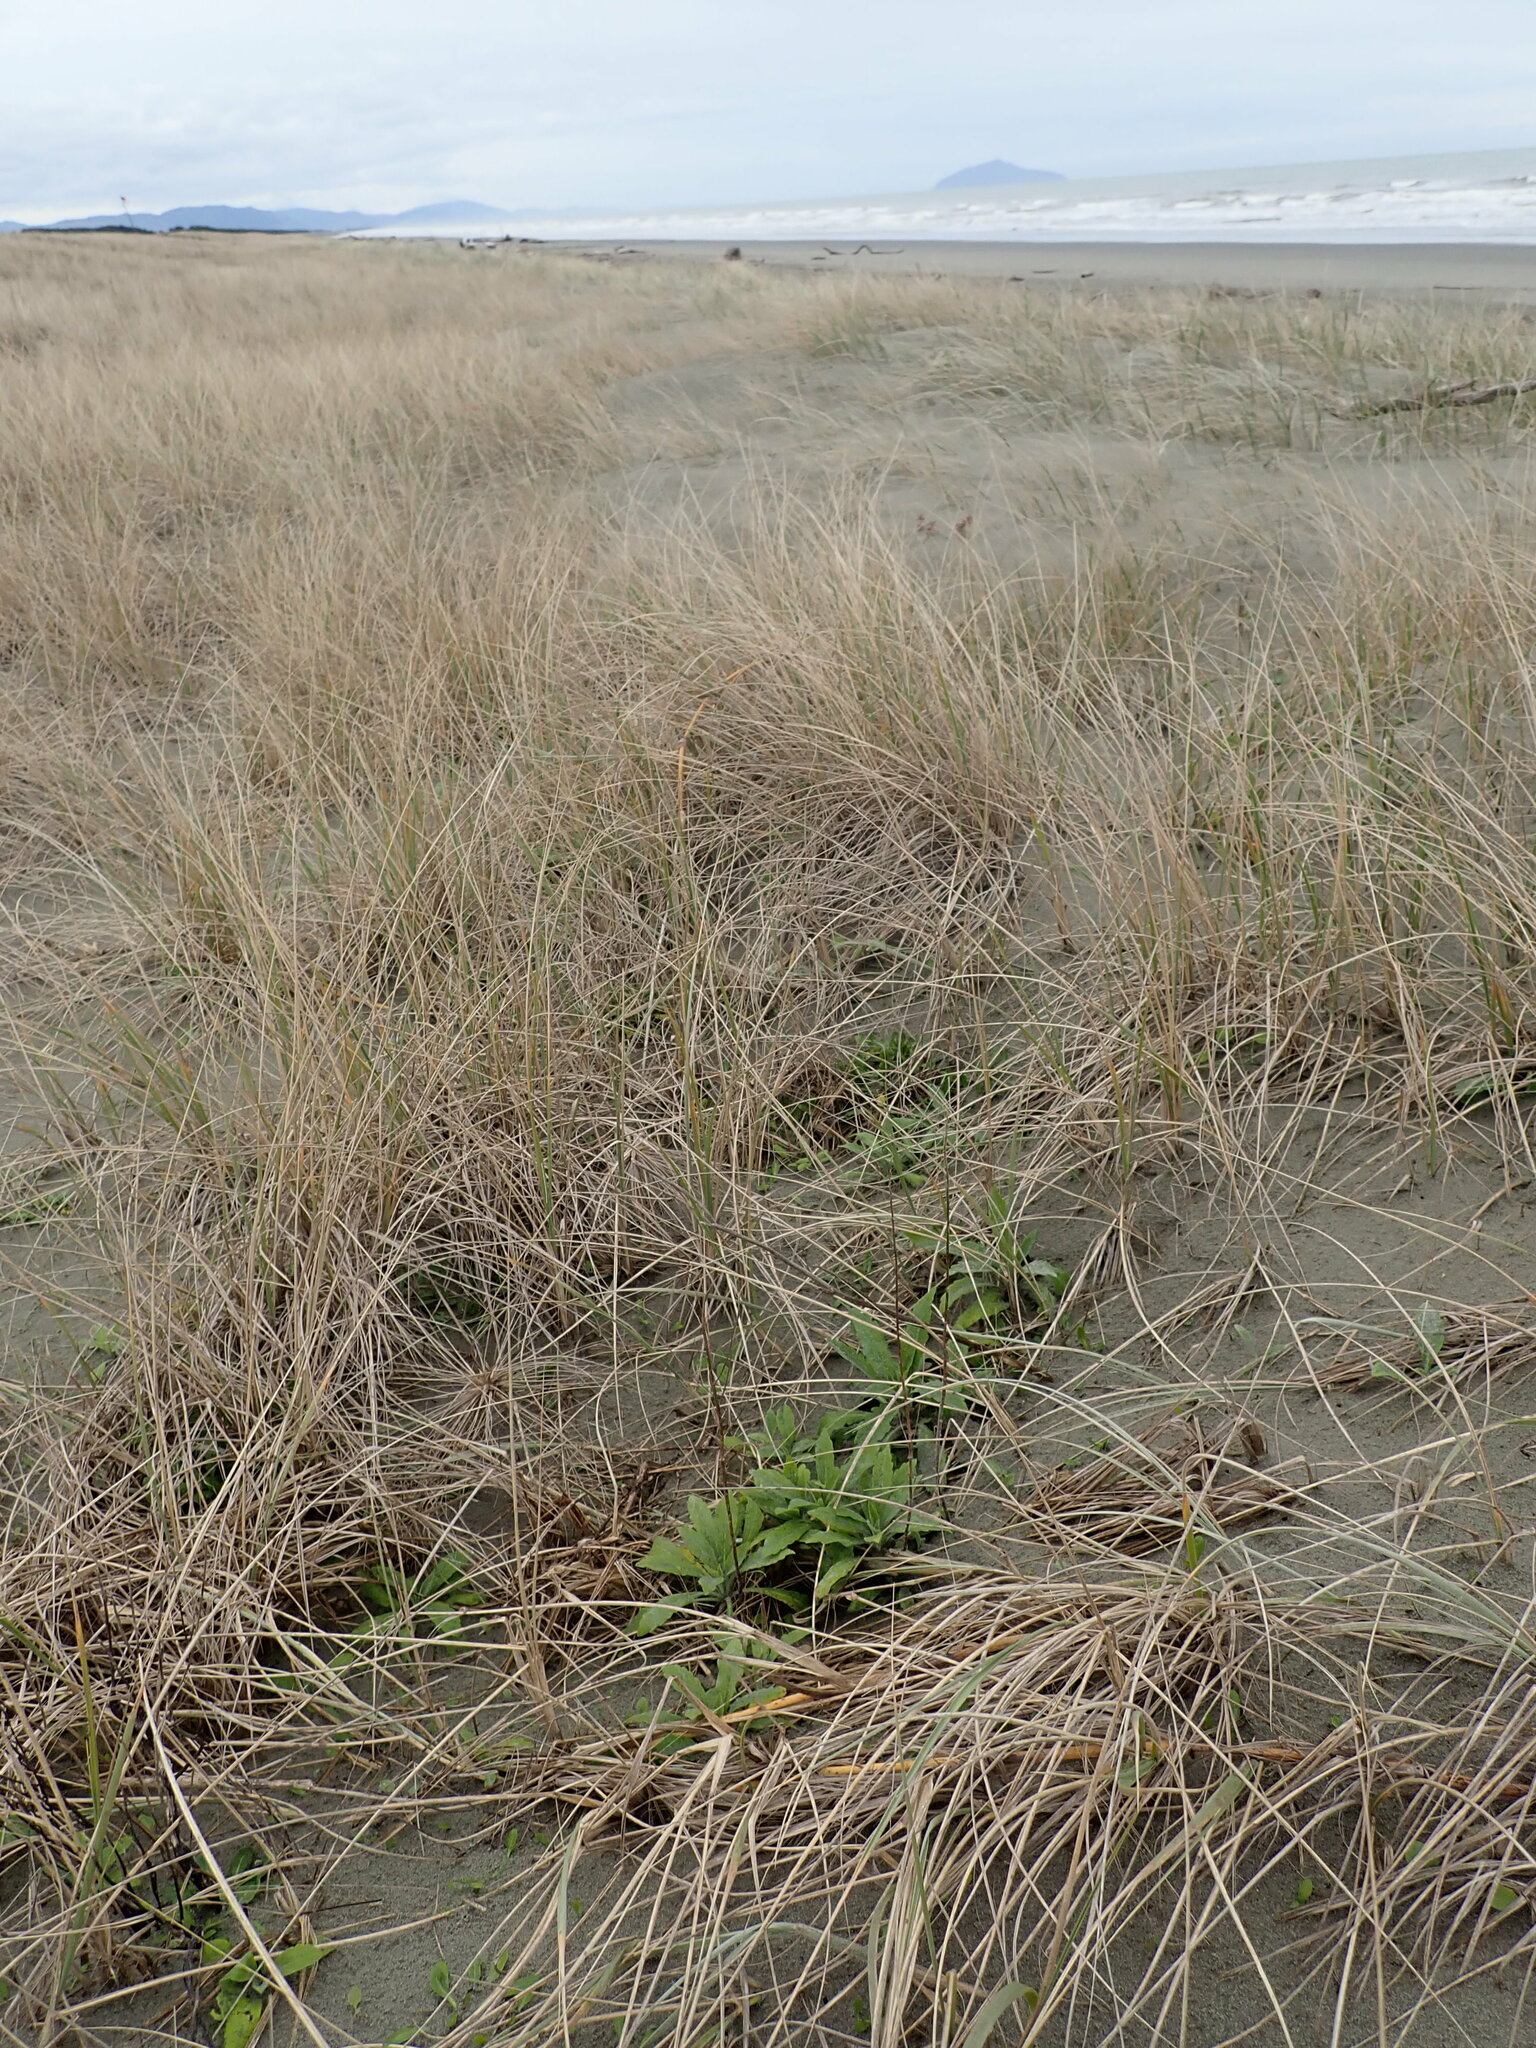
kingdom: Plantae
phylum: Tracheophyta
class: Magnoliopsida
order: Asterales
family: Asteraceae
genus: Erigeron
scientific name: Erigeron sumatrensis
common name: Daisy
